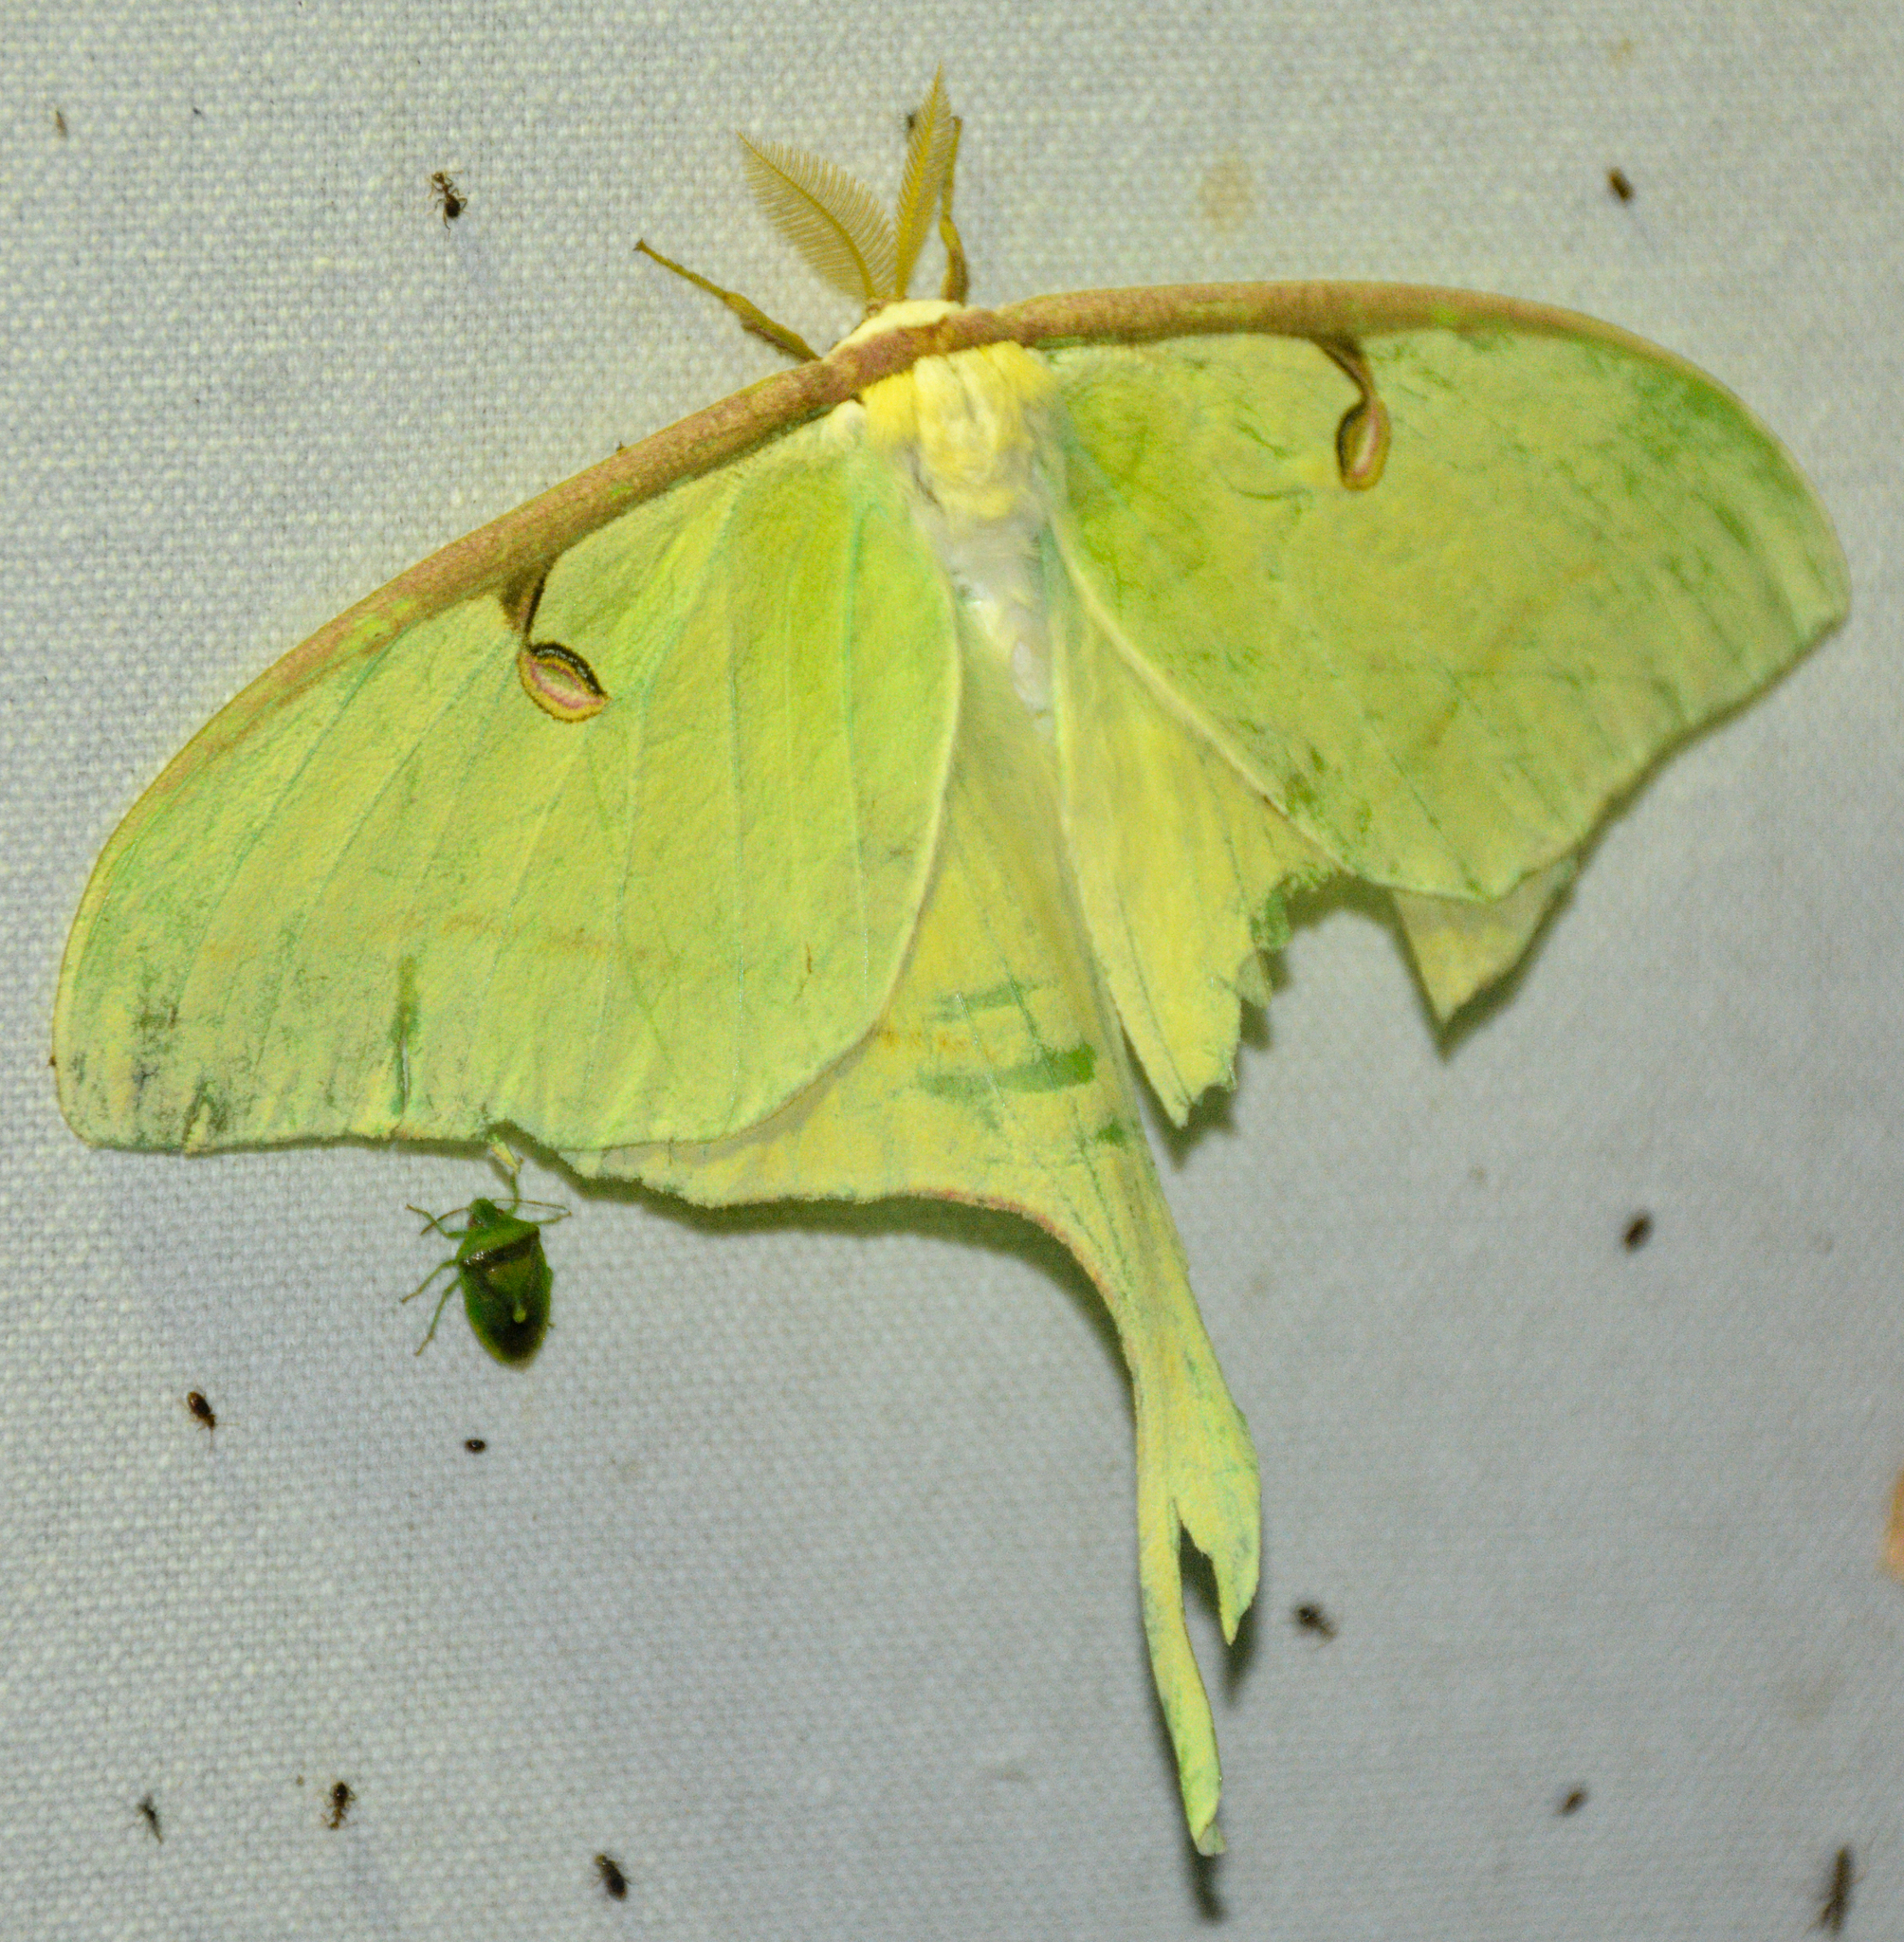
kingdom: Animalia
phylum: Arthropoda
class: Insecta
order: Lepidoptera
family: Saturniidae
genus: Actias
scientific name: Actias luna
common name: Luna moth
